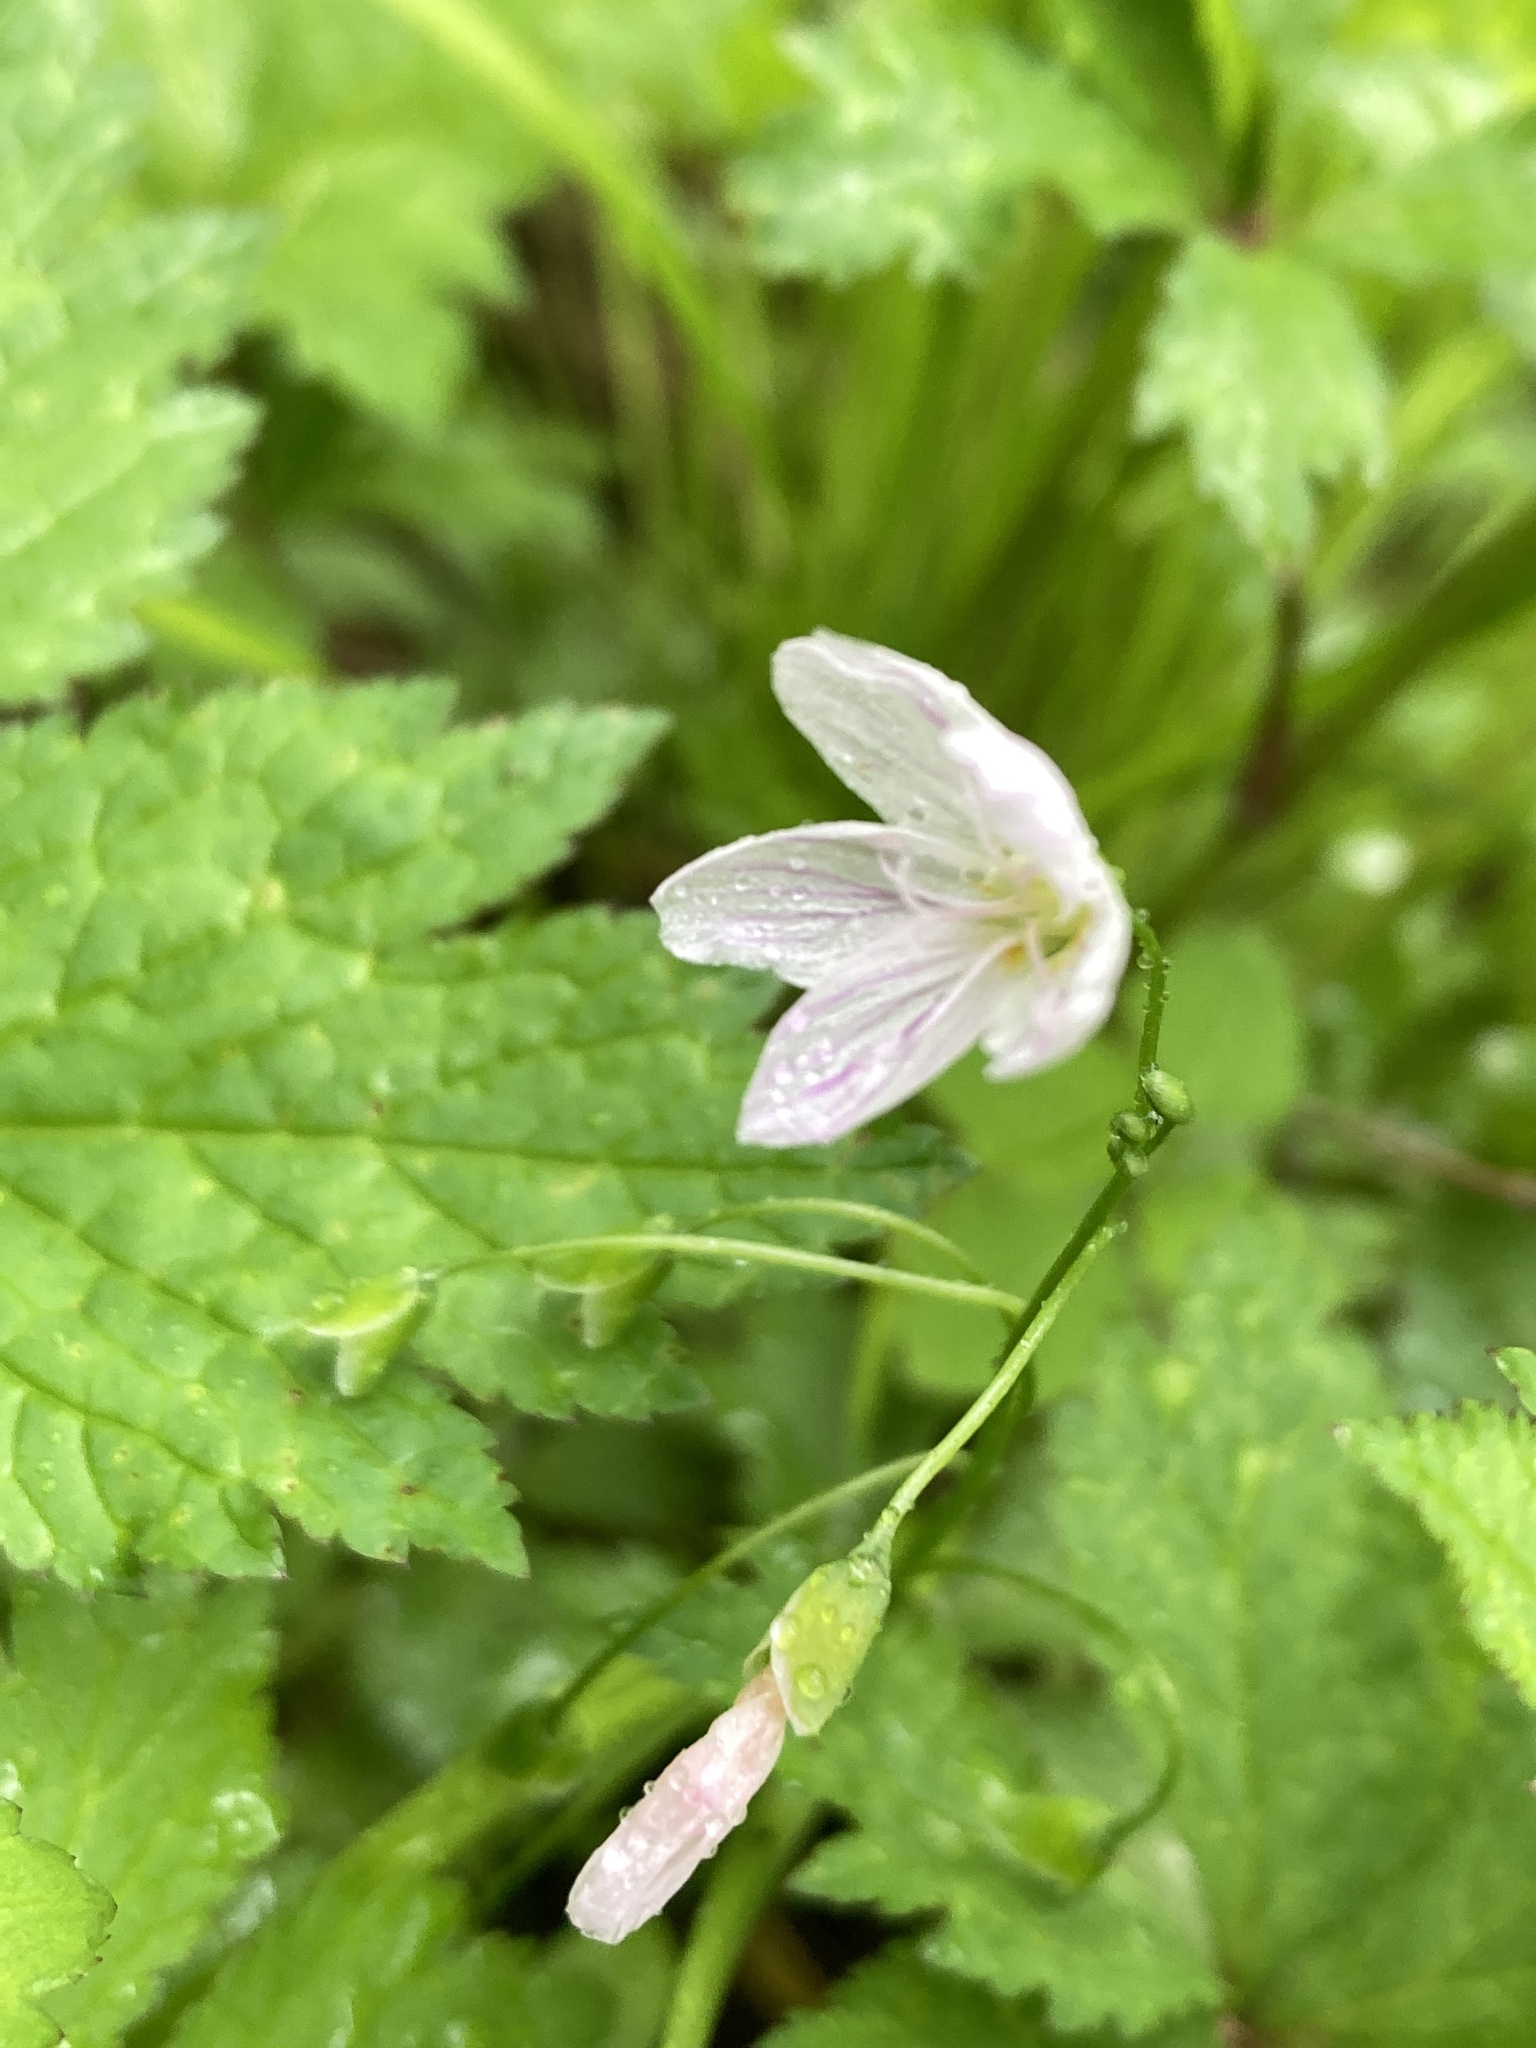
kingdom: Plantae
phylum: Tracheophyta
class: Magnoliopsida
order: Caryophyllales
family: Montiaceae
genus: Claytonia
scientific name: Claytonia virginica
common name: Virginia springbeauty
